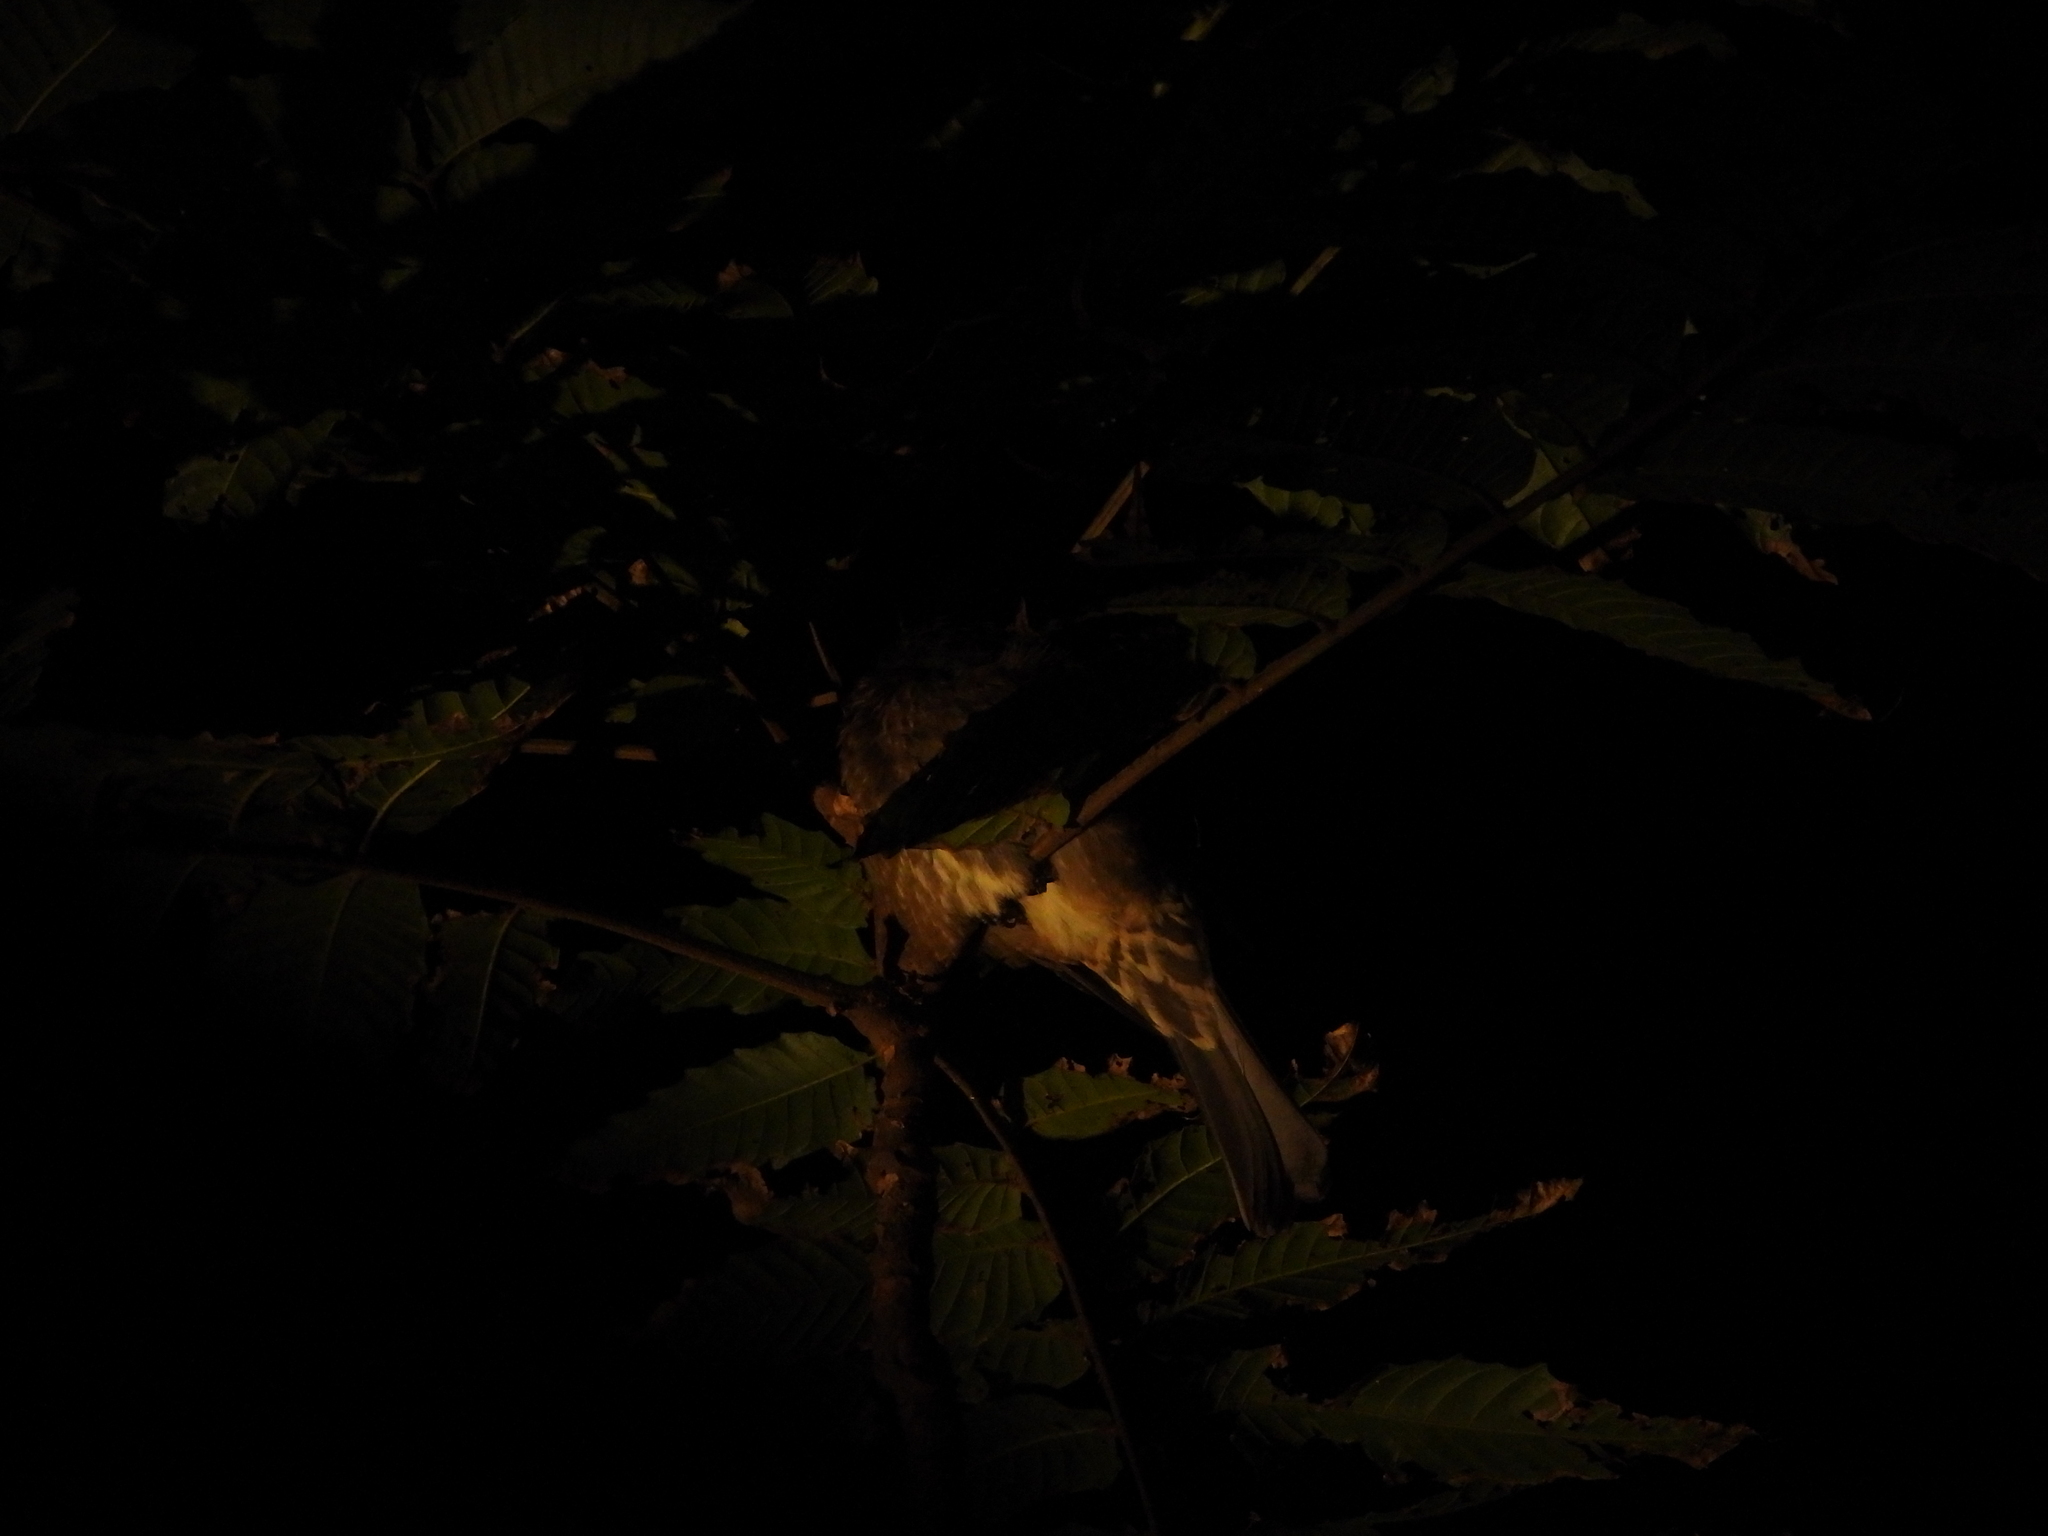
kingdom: Animalia
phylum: Chordata
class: Aves
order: Passeriformes
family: Pycnonotidae
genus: Hypsipetes
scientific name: Hypsipetes amaurotis
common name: Brown-eared bulbul
